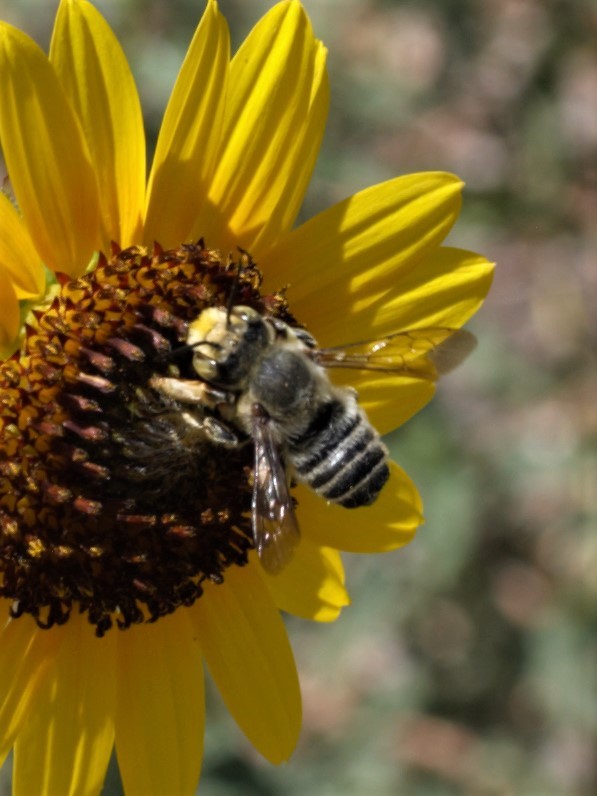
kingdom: Animalia
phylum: Arthropoda
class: Insecta
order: Hymenoptera
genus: Megachiloides
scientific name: Megachiloides
